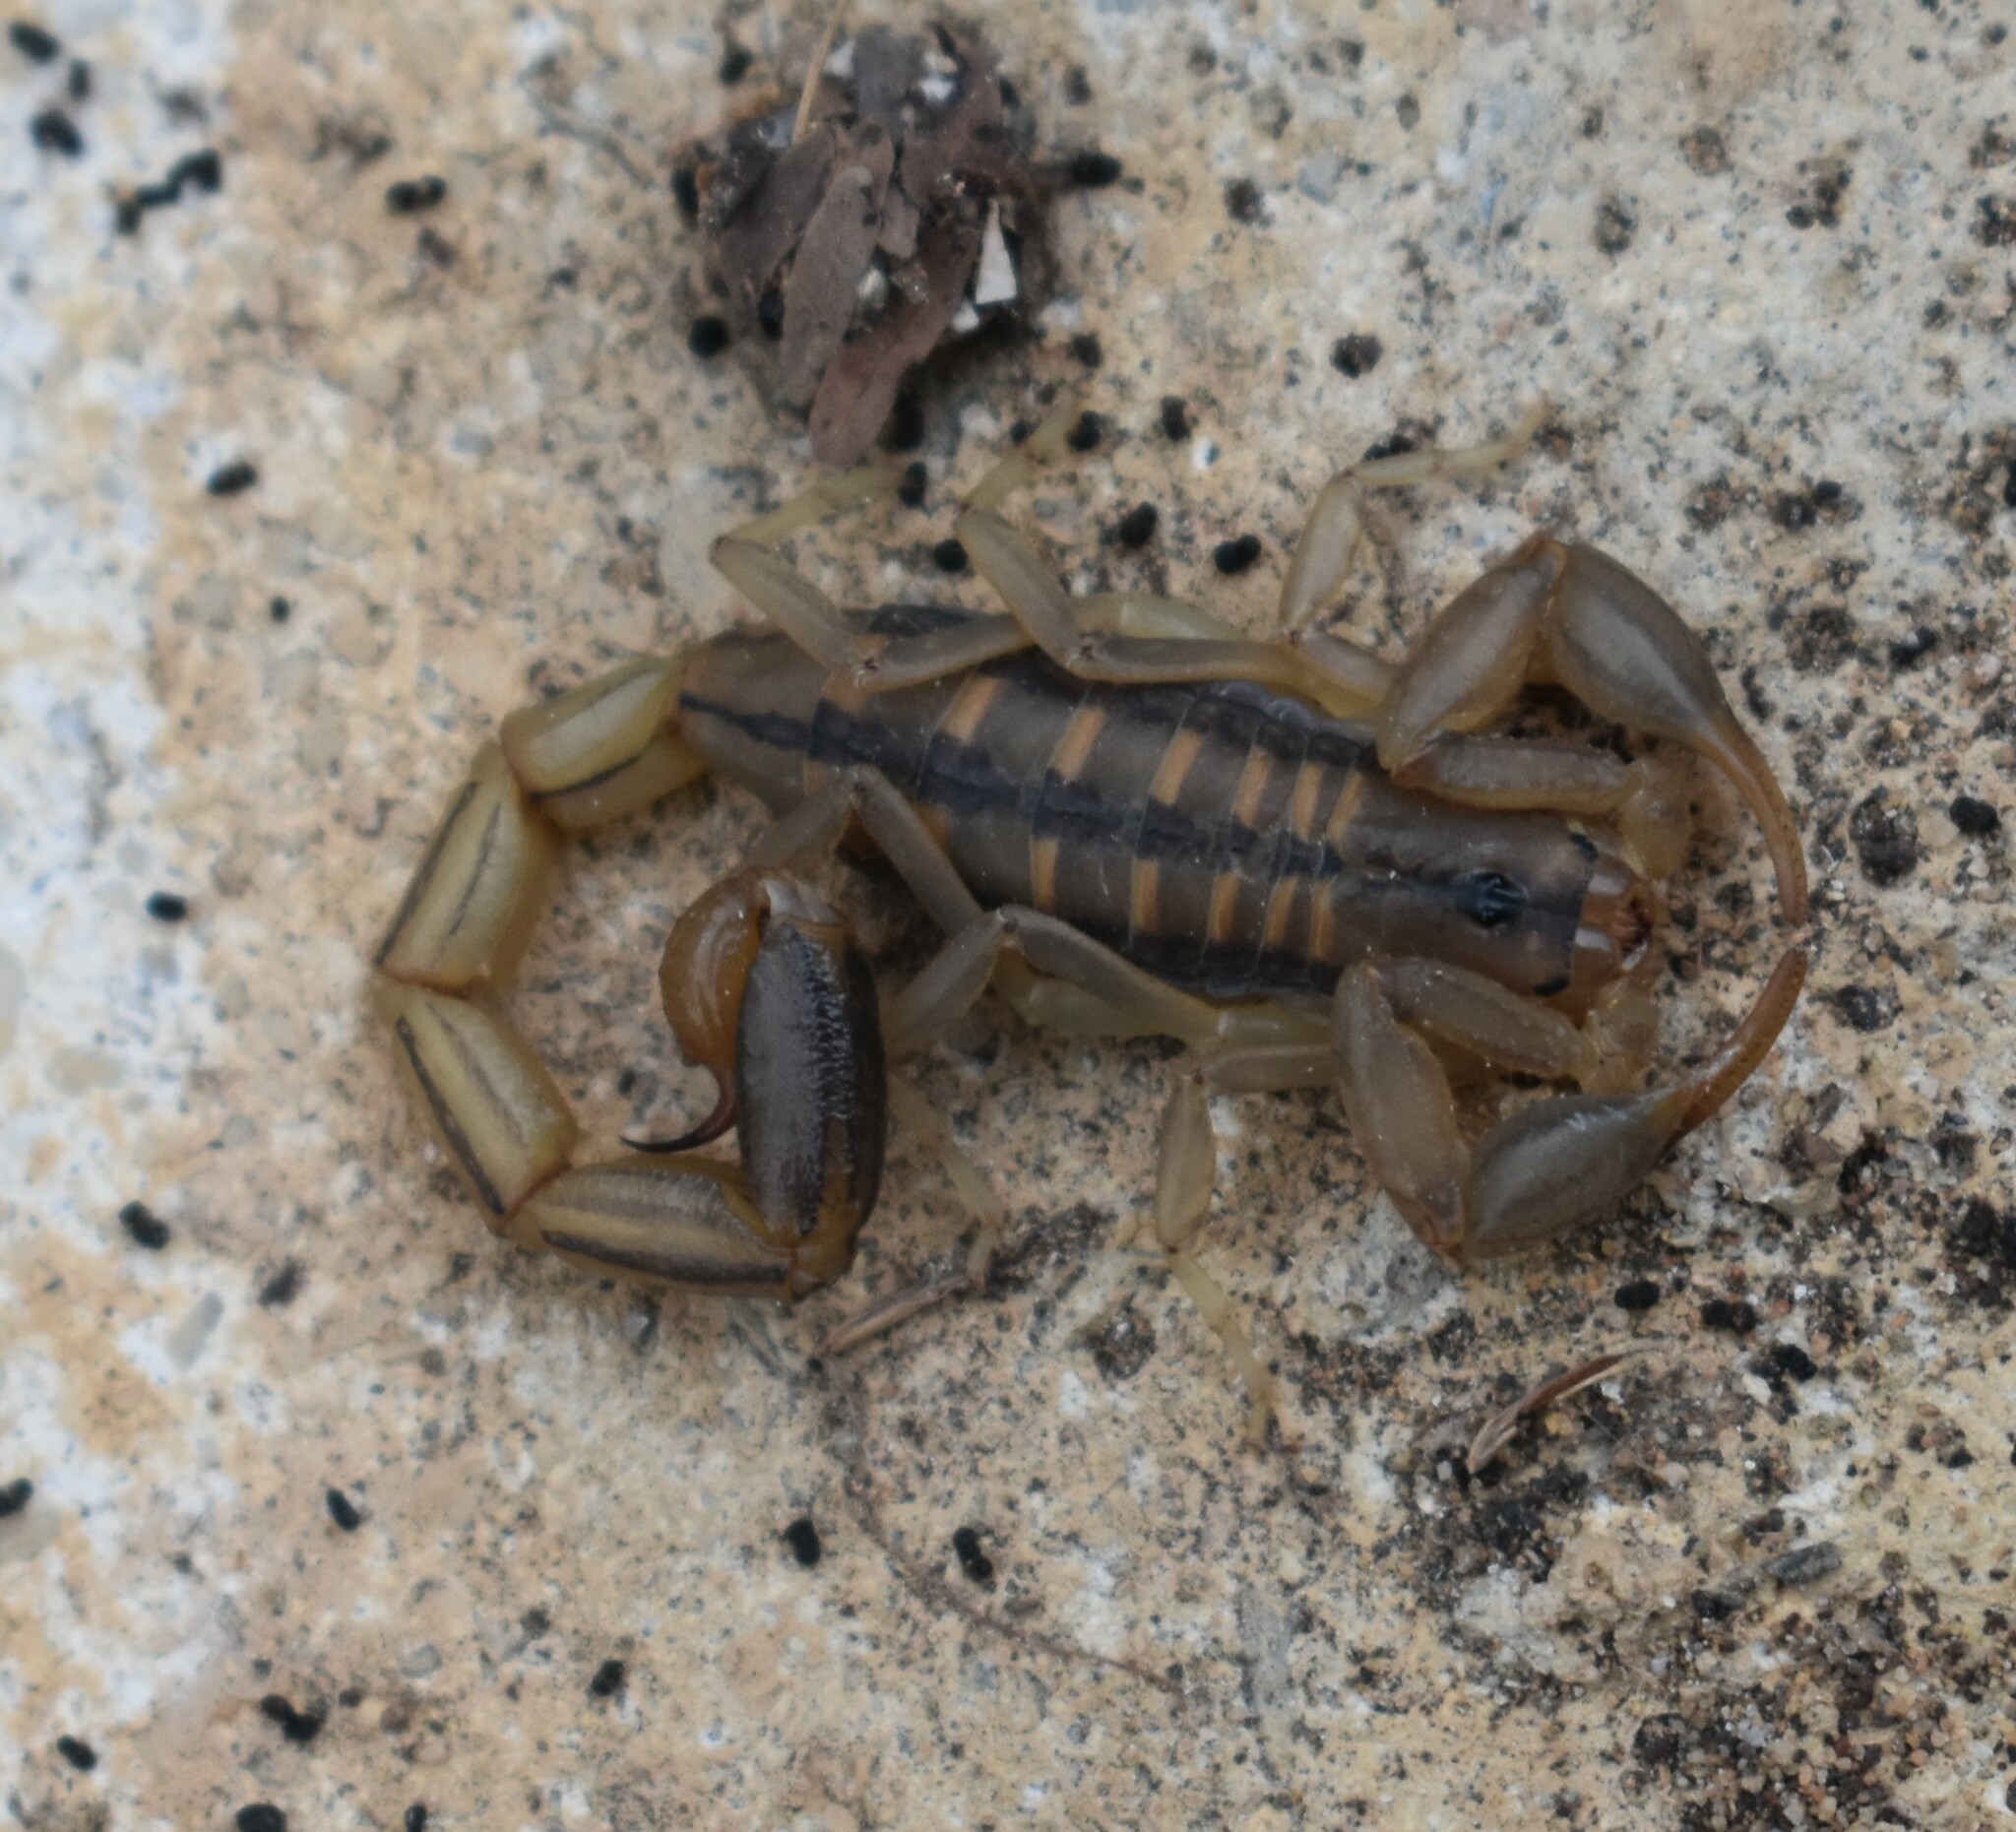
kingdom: Animalia
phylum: Arthropoda
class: Arachnida
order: Scorpiones
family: Buthidae
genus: Uroplectes
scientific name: Uroplectes marlothi
